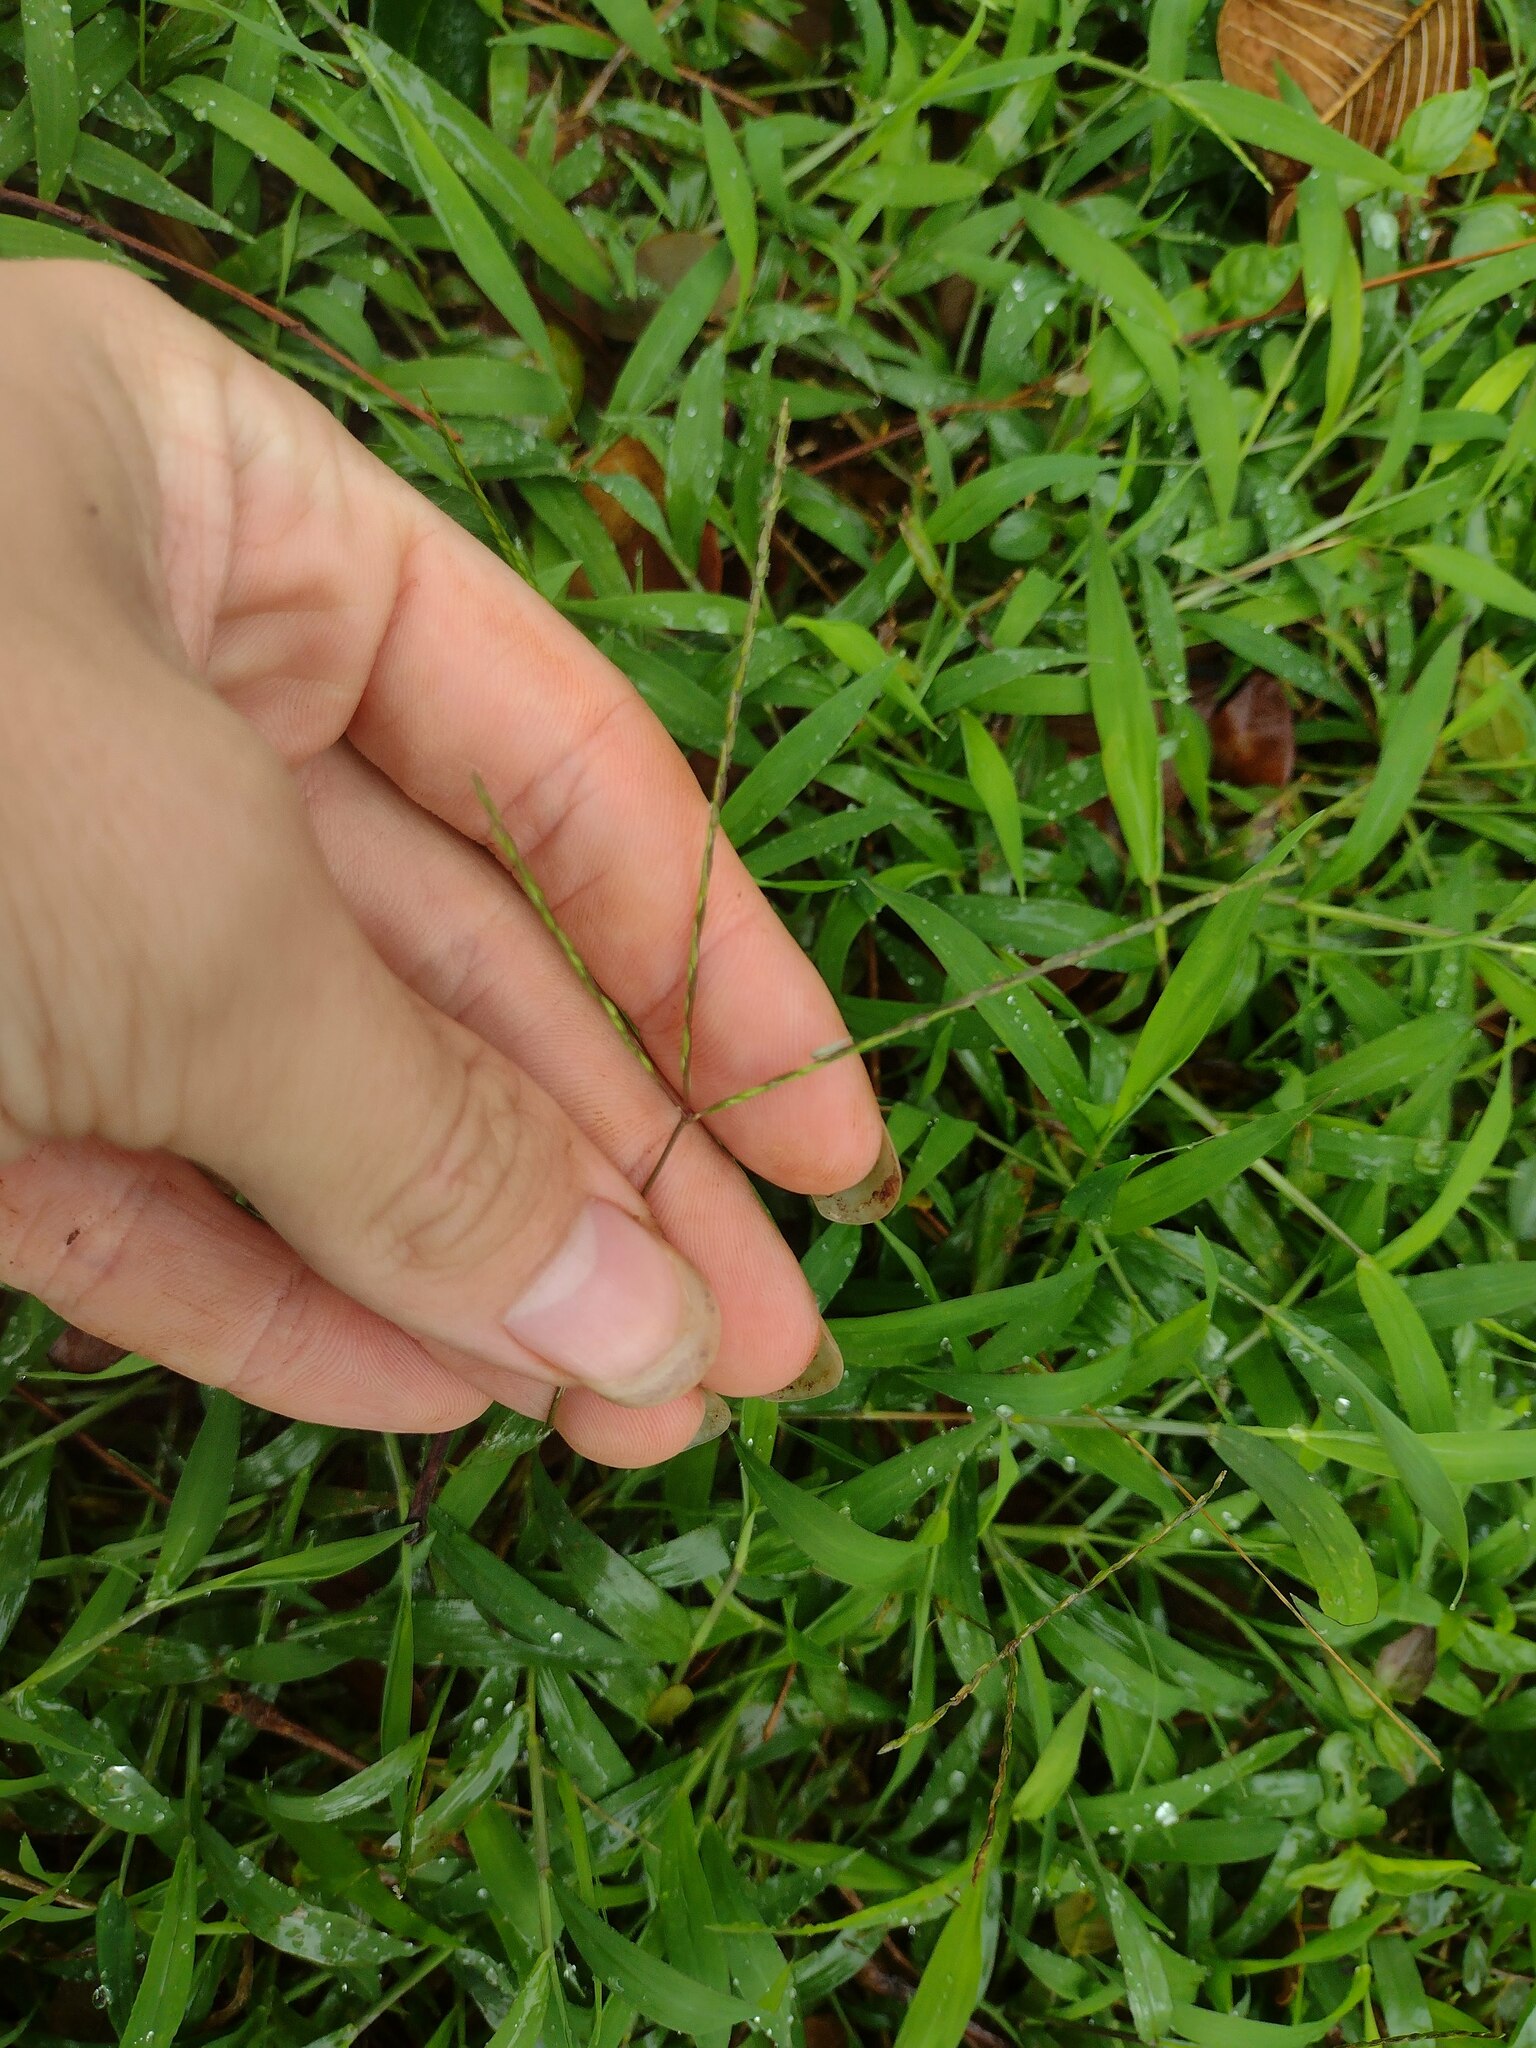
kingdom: Plantae
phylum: Tracheophyta
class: Liliopsida
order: Poales
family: Poaceae
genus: Digitaria
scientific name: Digitaria radicosa
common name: Trailing crabgrass
